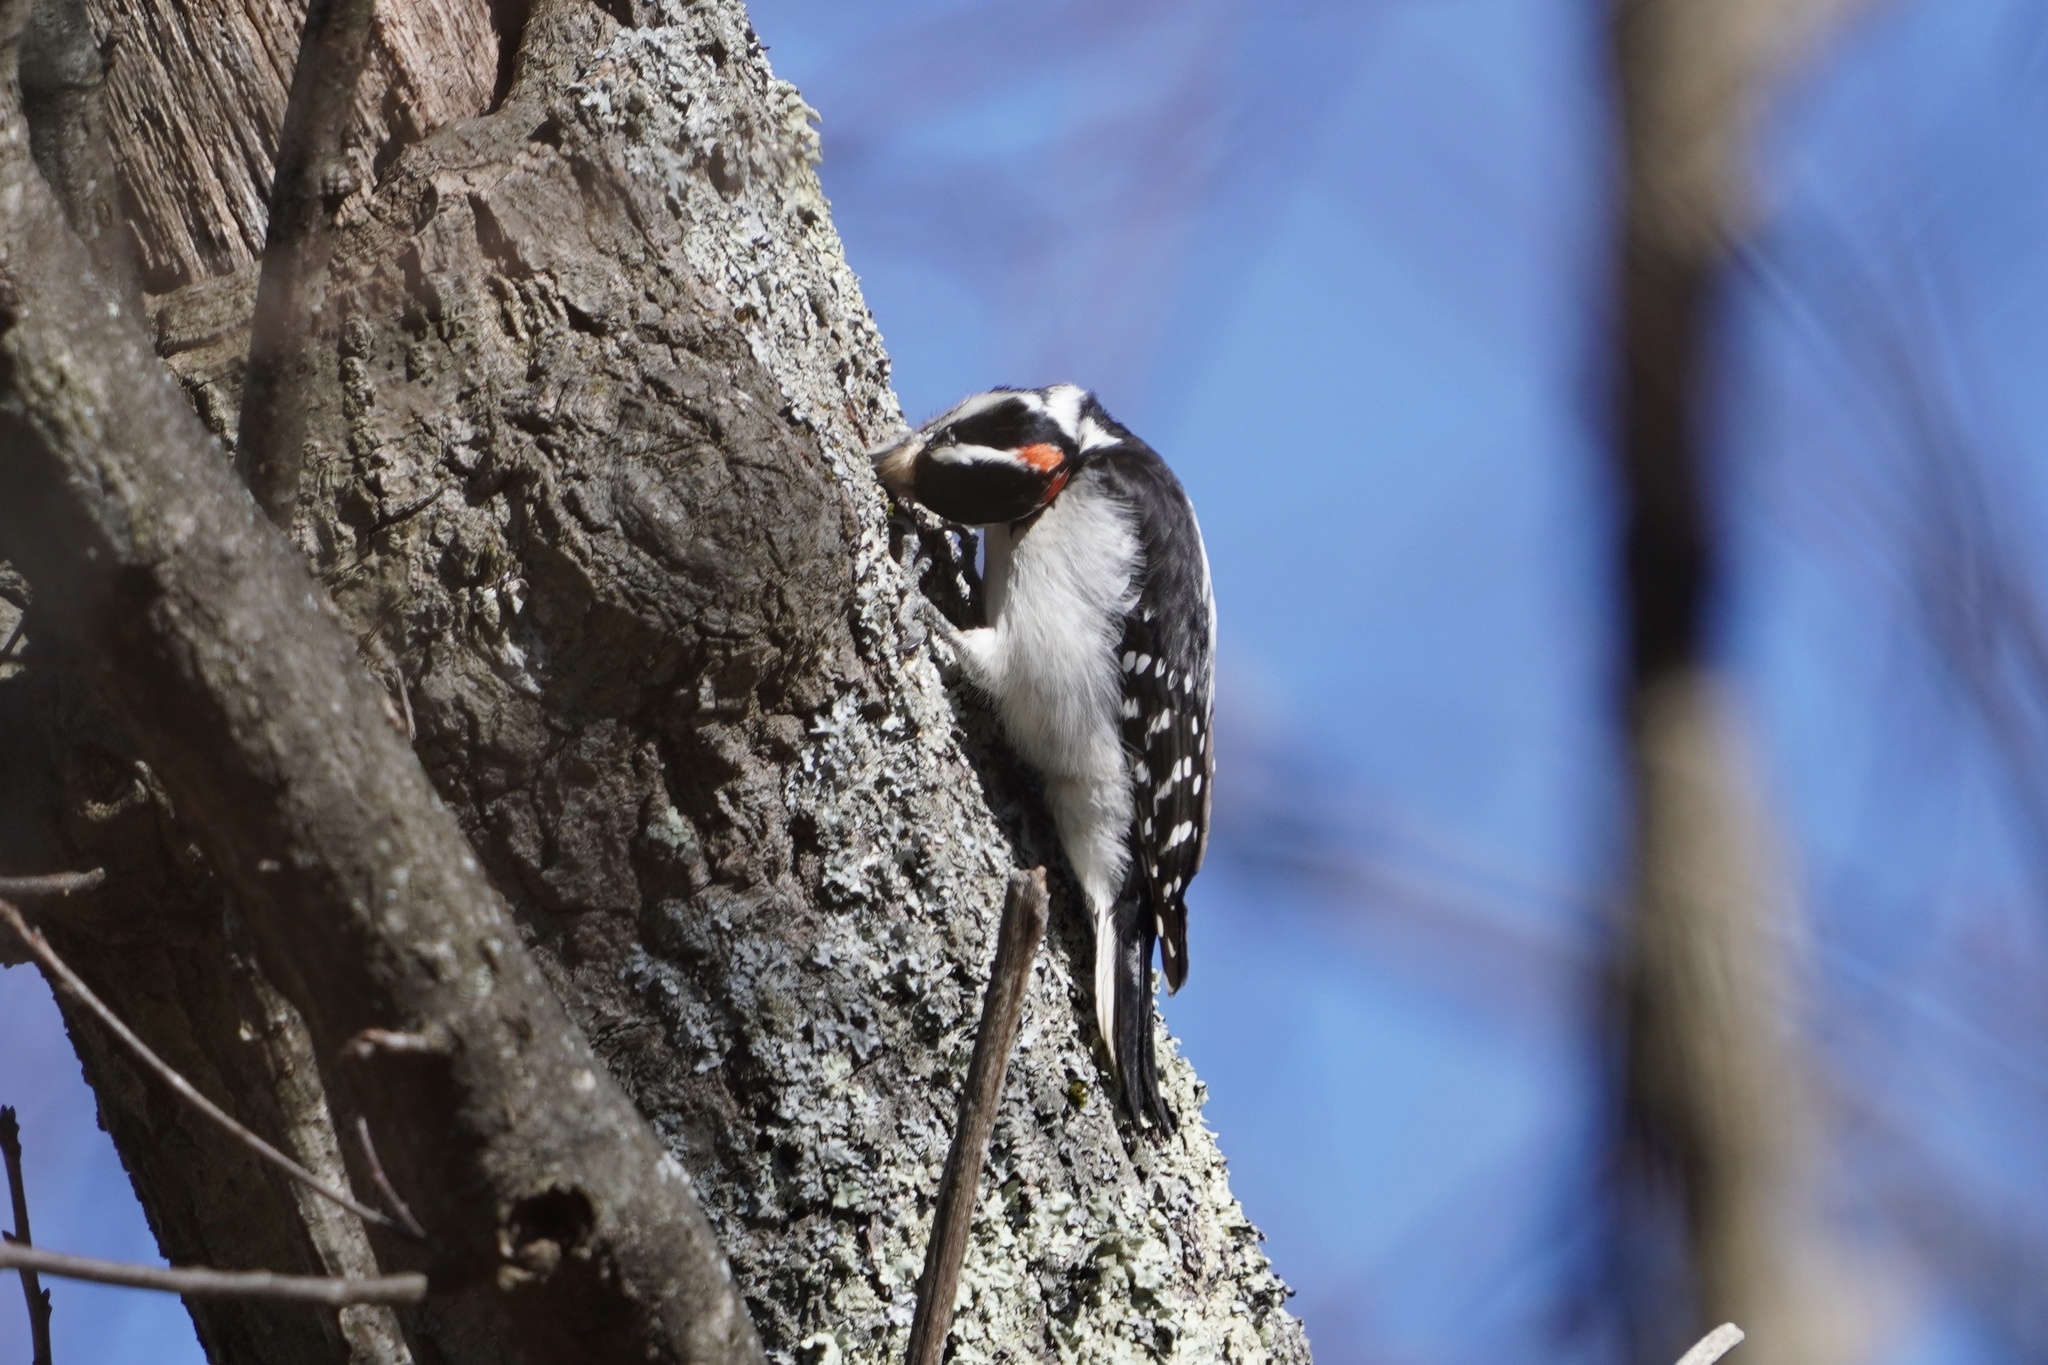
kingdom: Animalia
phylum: Chordata
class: Aves
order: Piciformes
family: Picidae
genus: Leuconotopicus
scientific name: Leuconotopicus villosus
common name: Hairy woodpecker
